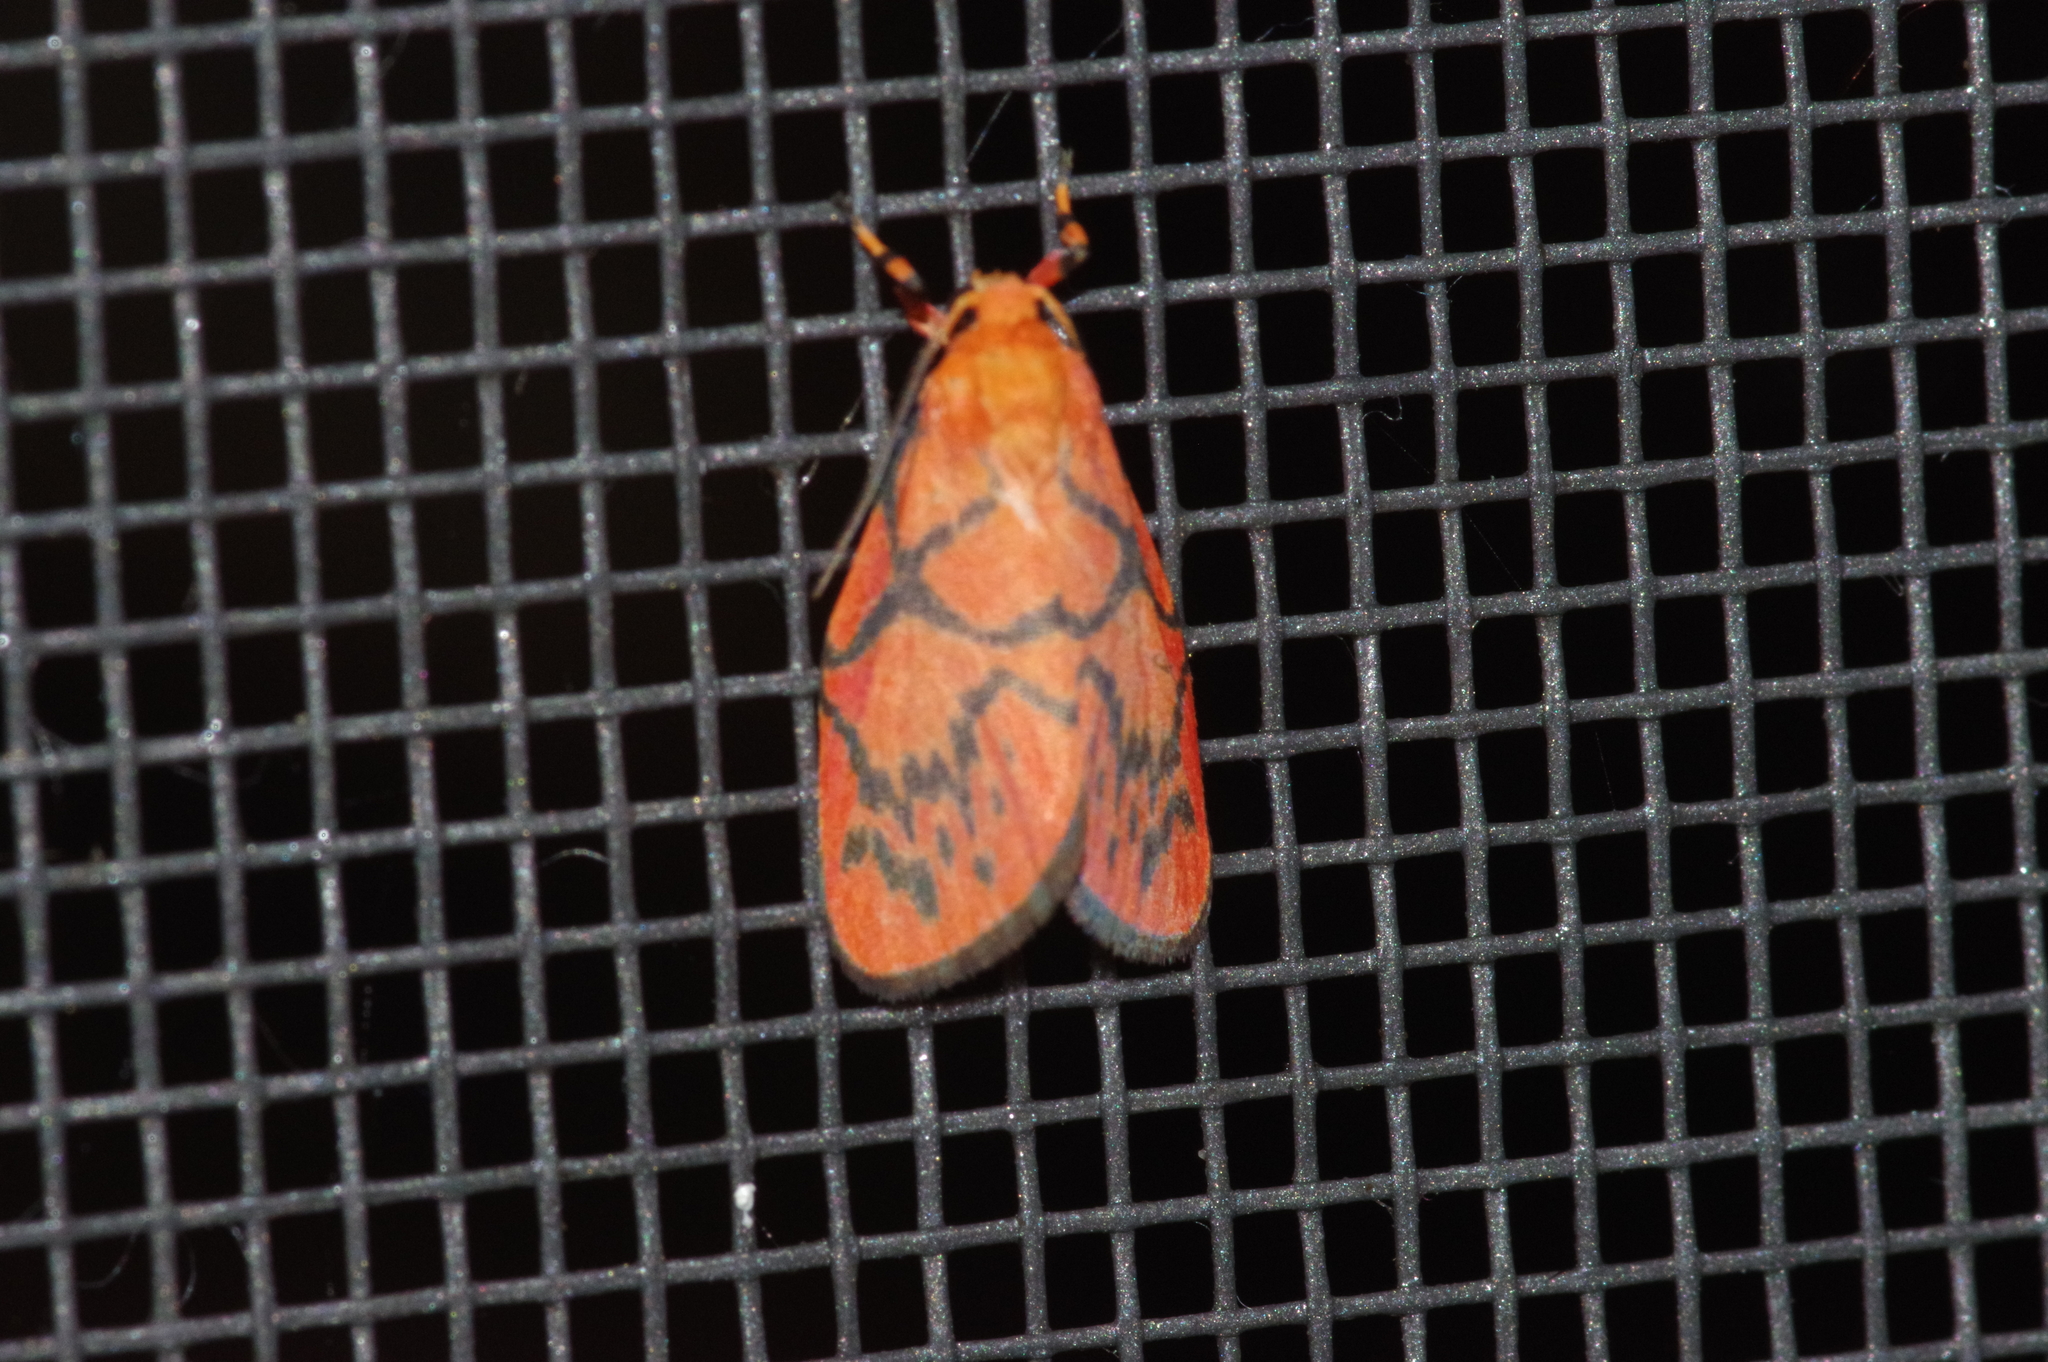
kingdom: Animalia
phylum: Arthropoda
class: Insecta
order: Lepidoptera
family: Erebidae
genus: Aberrasine
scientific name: Aberrasine aberrans
